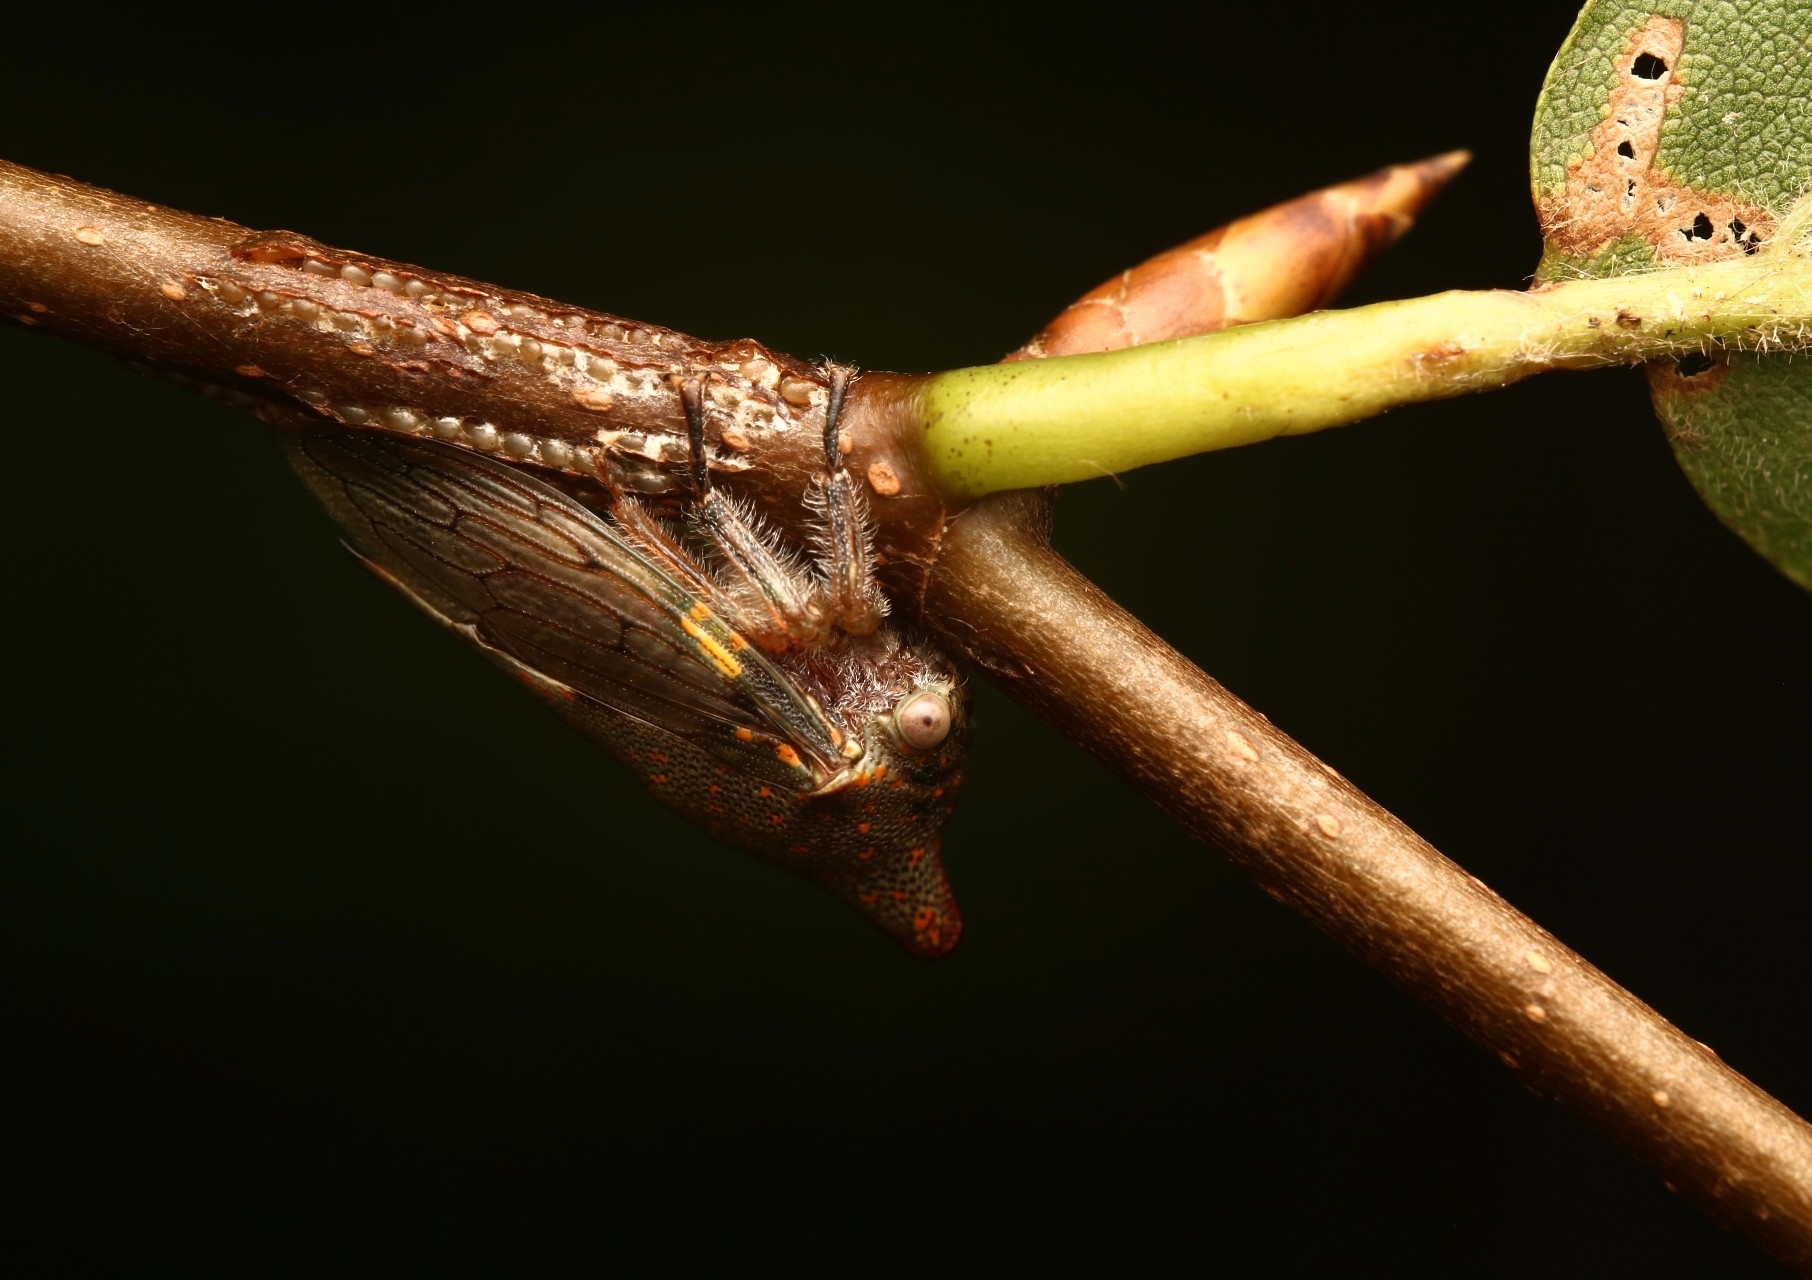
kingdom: Animalia
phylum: Arthropoda
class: Insecta
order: Hemiptera
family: Membracidae
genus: Platycotis
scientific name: Platycotis vittatus
